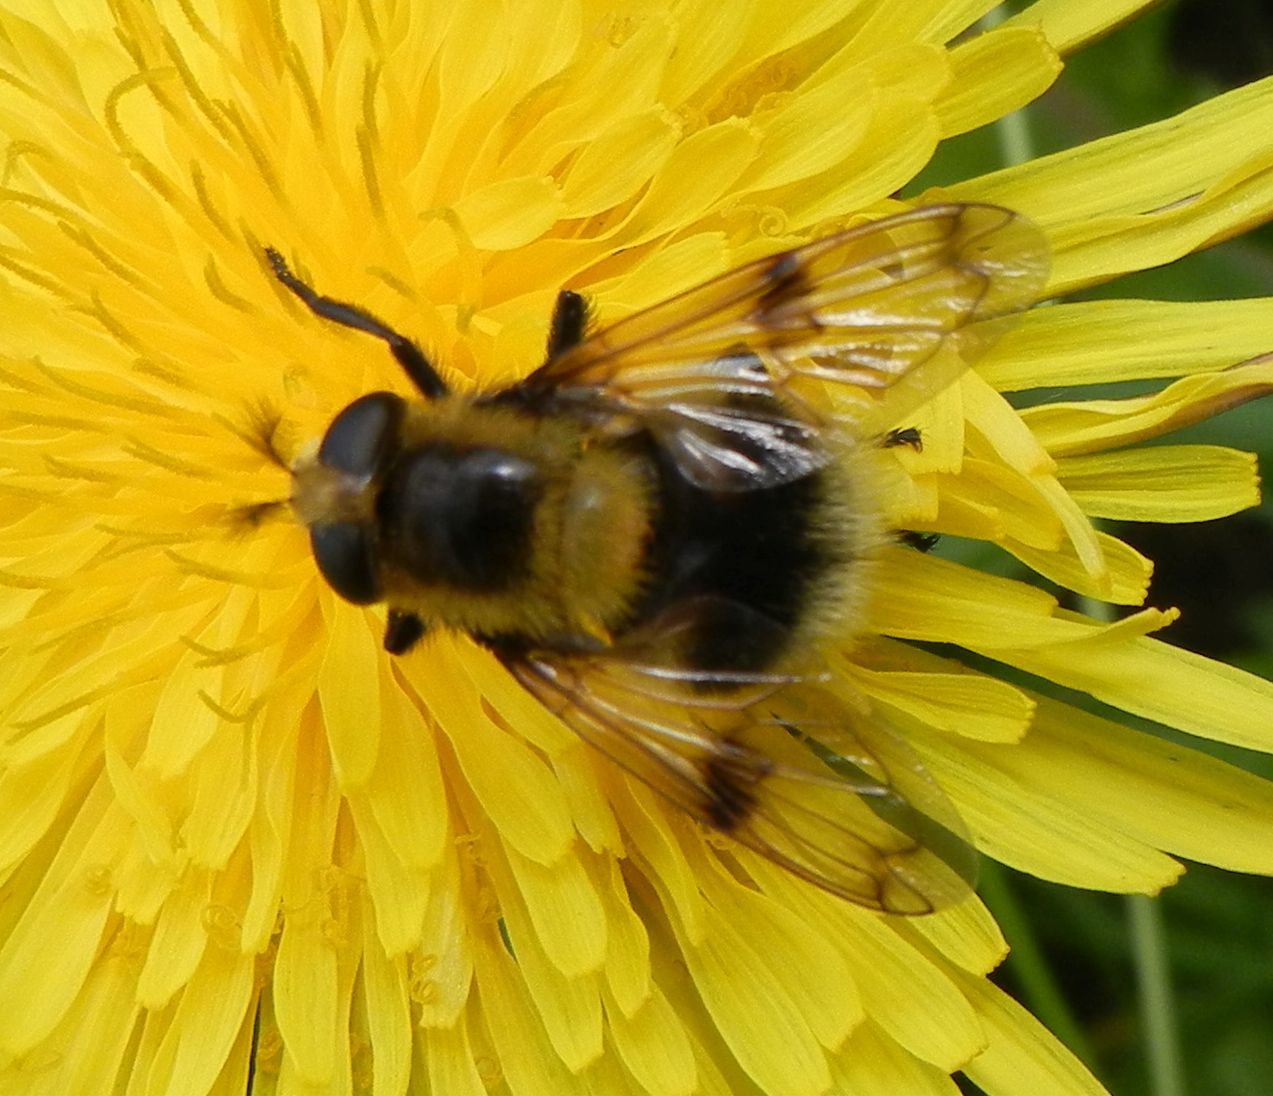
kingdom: Animalia
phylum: Arthropoda
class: Insecta
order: Diptera
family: Syrphidae
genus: Volucella
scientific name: Volucella bombylans
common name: Bumble bee hover fly
